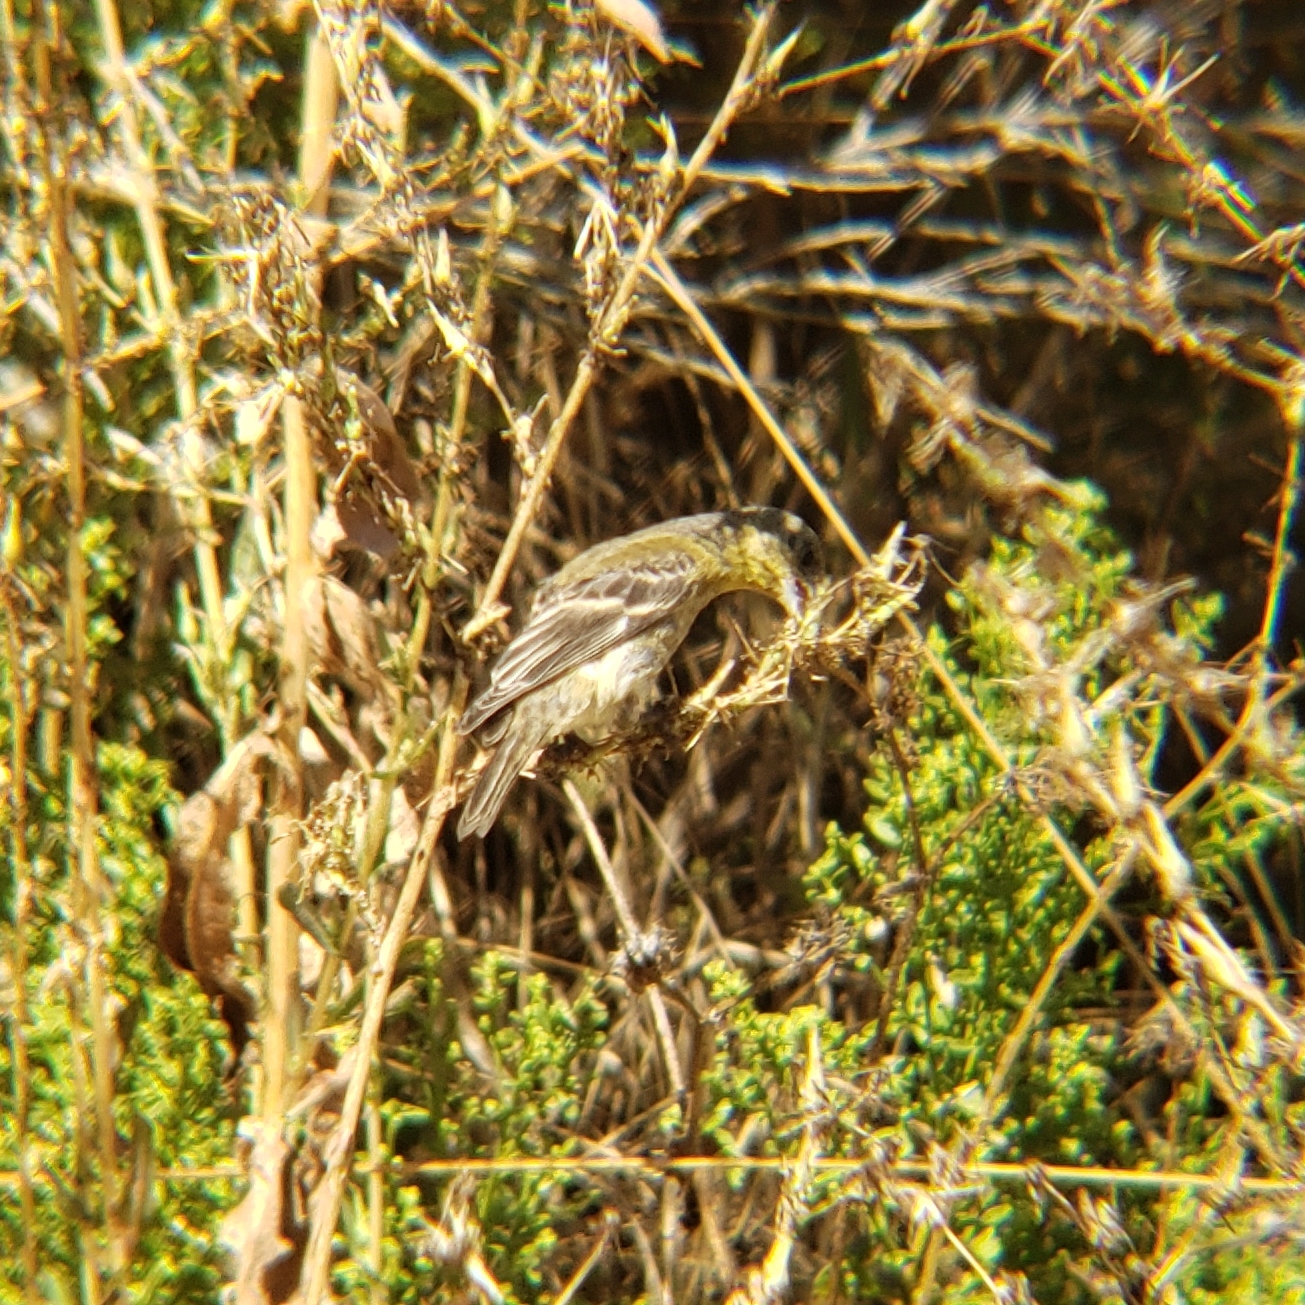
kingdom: Animalia
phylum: Chordata
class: Aves
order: Passeriformes
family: Fringillidae
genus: Spinus
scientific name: Spinus psaltria
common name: Lesser goldfinch
